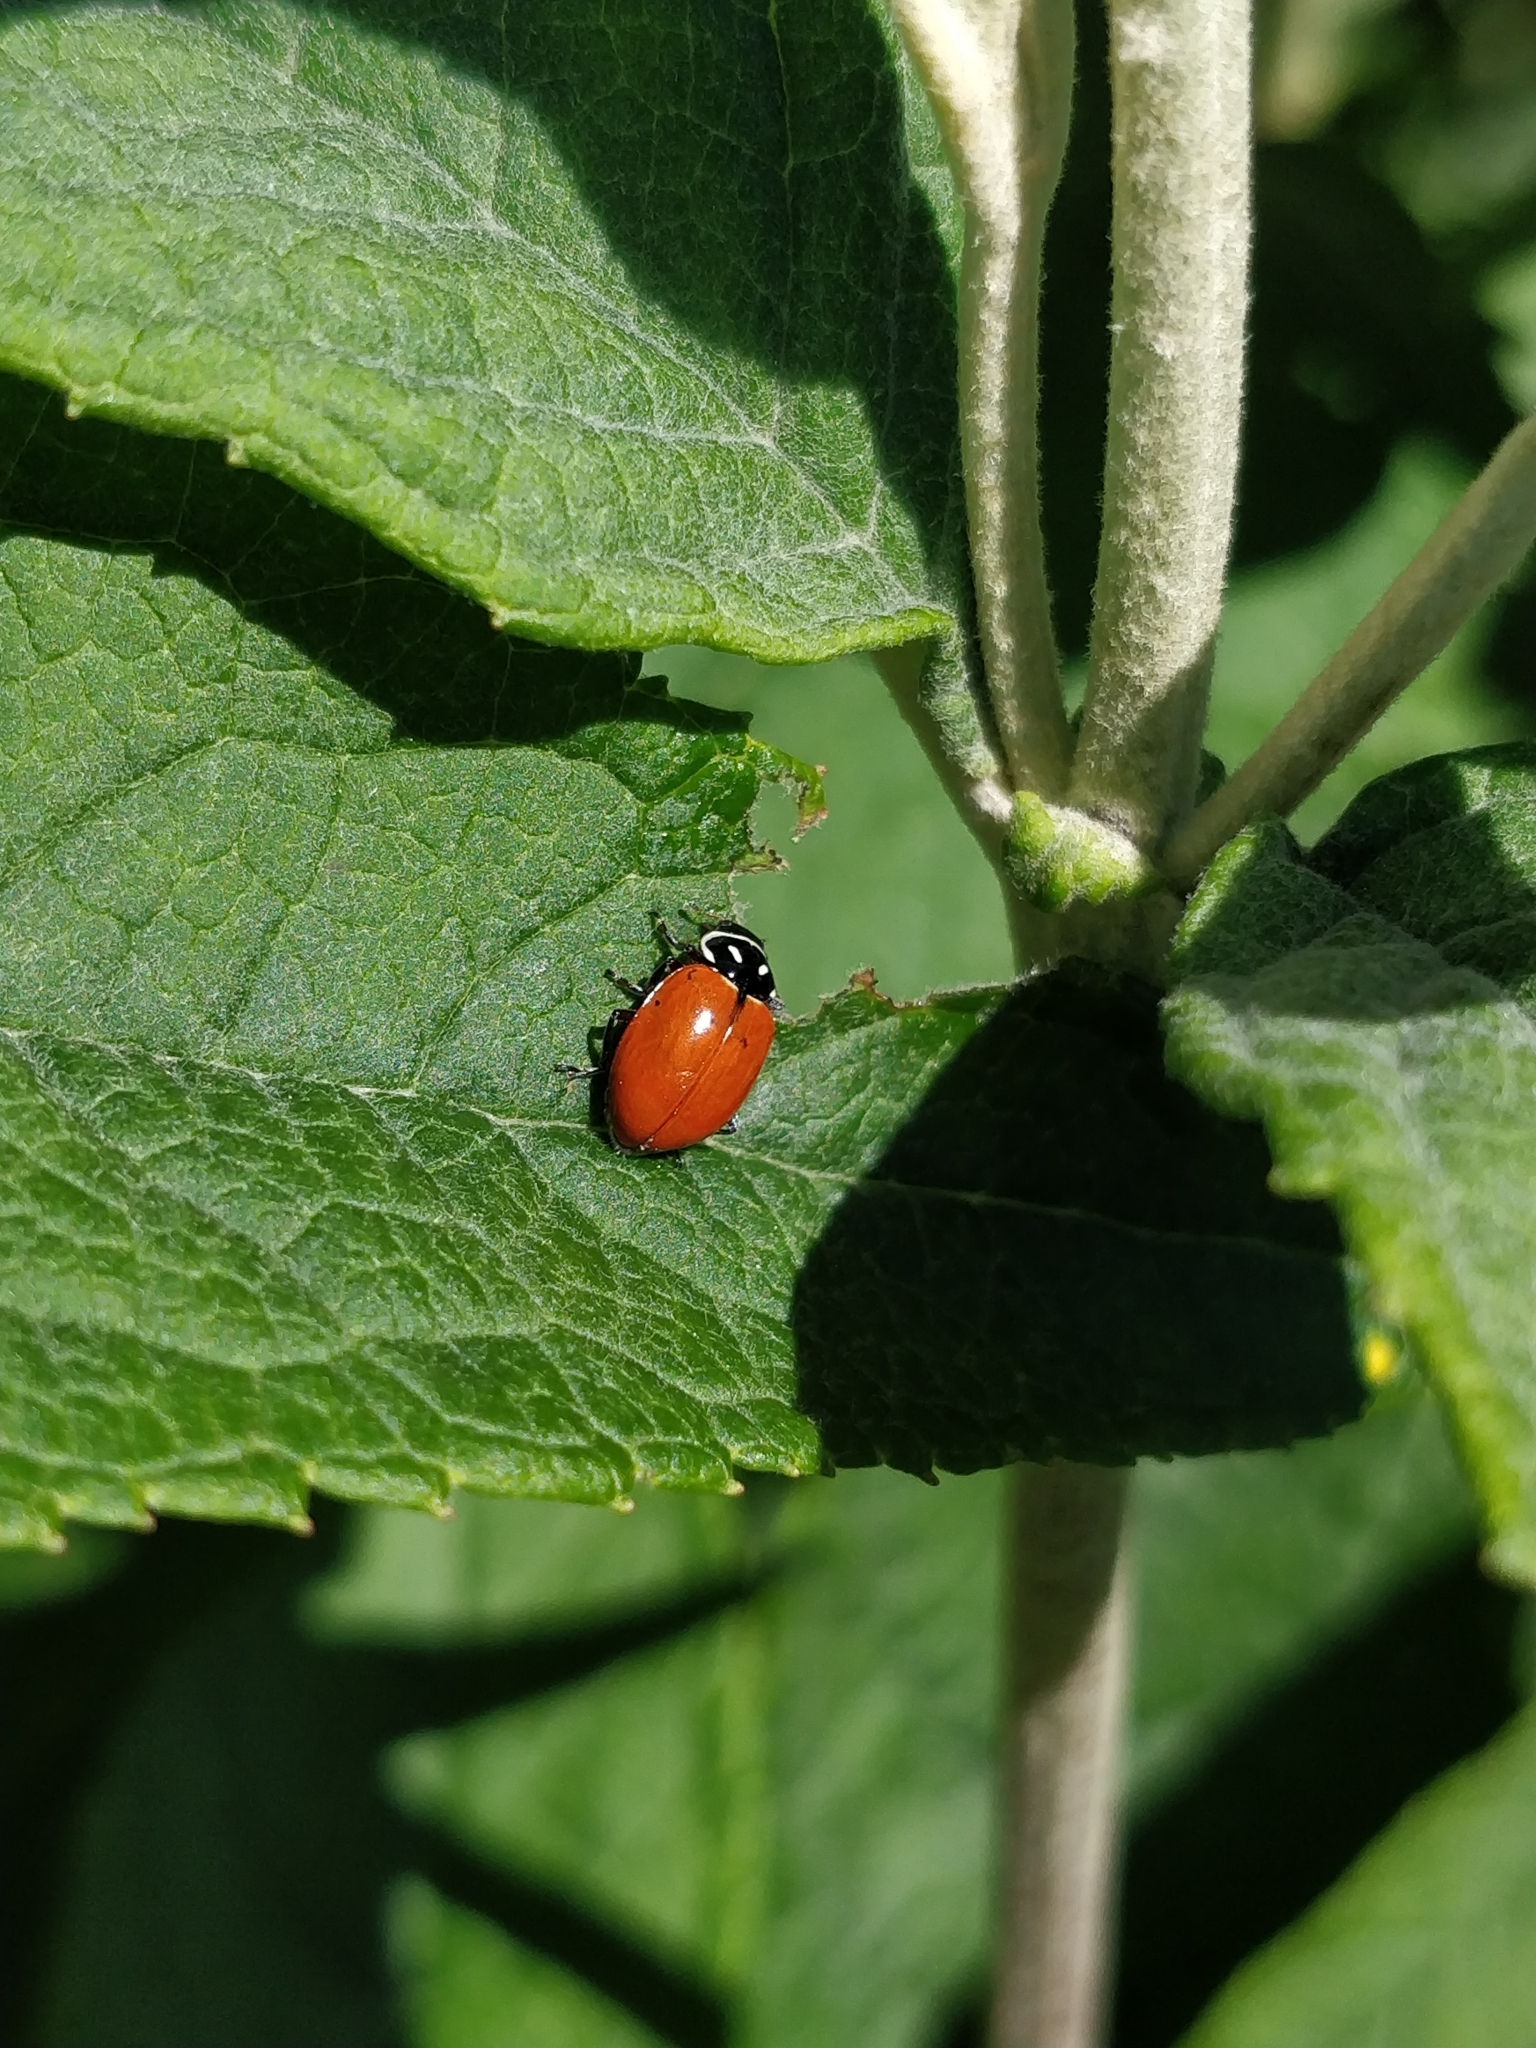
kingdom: Animalia
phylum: Arthropoda
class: Insecta
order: Coleoptera
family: Coccinellidae
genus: Hippodamia
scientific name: Hippodamia
